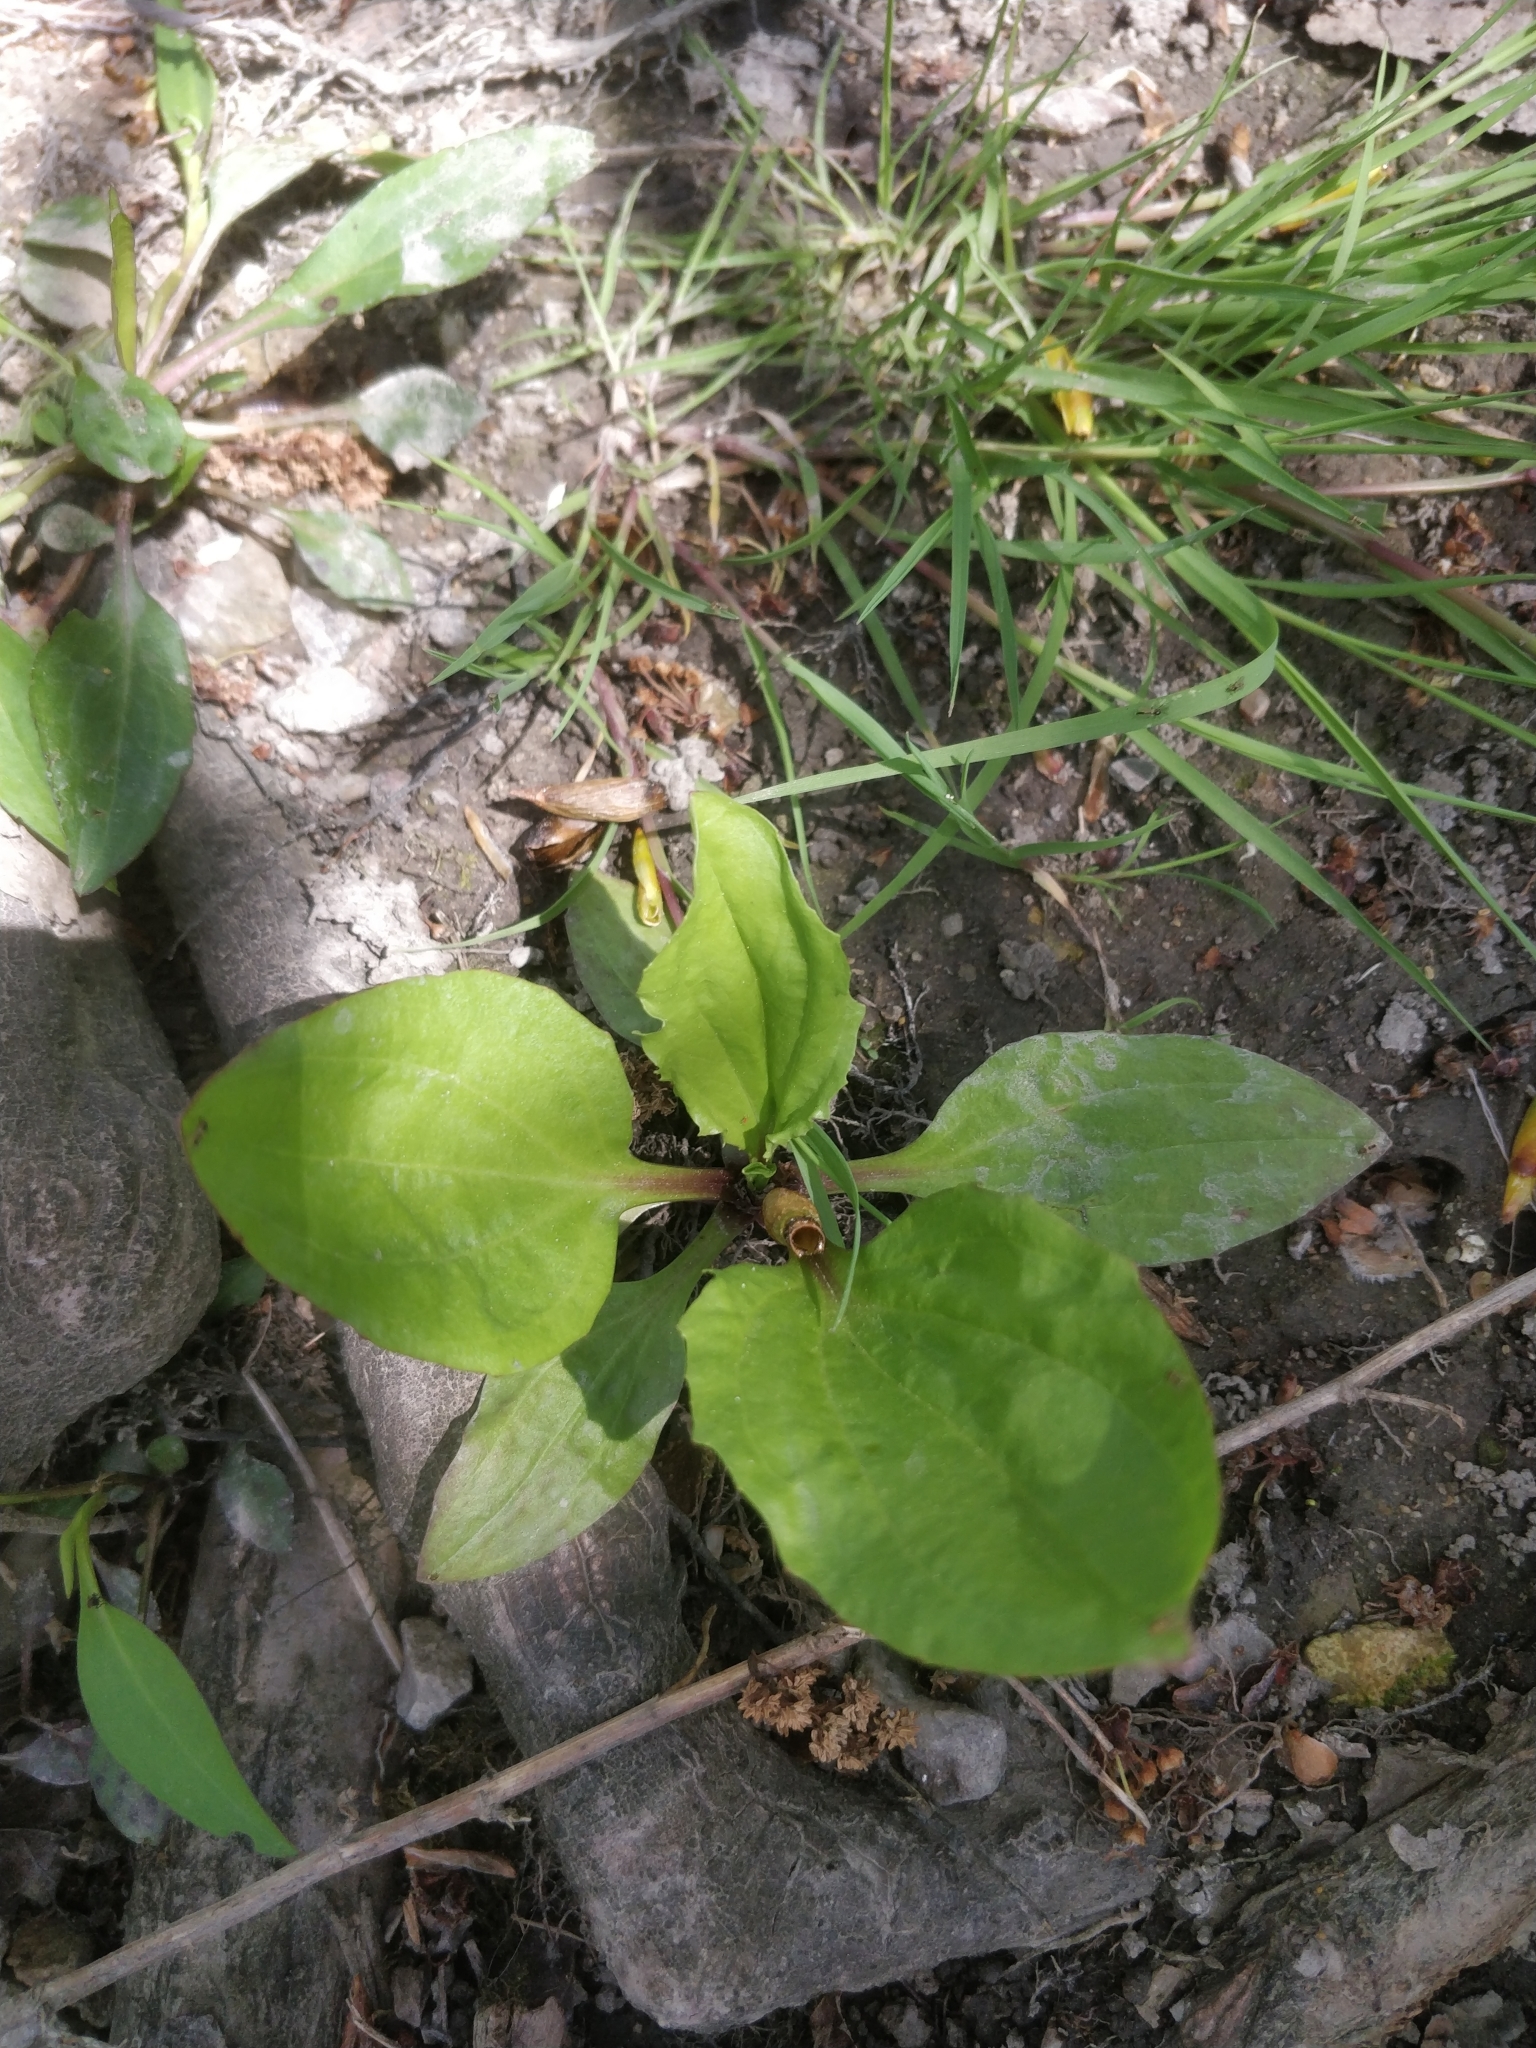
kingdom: Plantae
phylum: Tracheophyta
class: Magnoliopsida
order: Lamiales
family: Plantaginaceae
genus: Plantago
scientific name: Plantago rugelii
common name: American plantain
